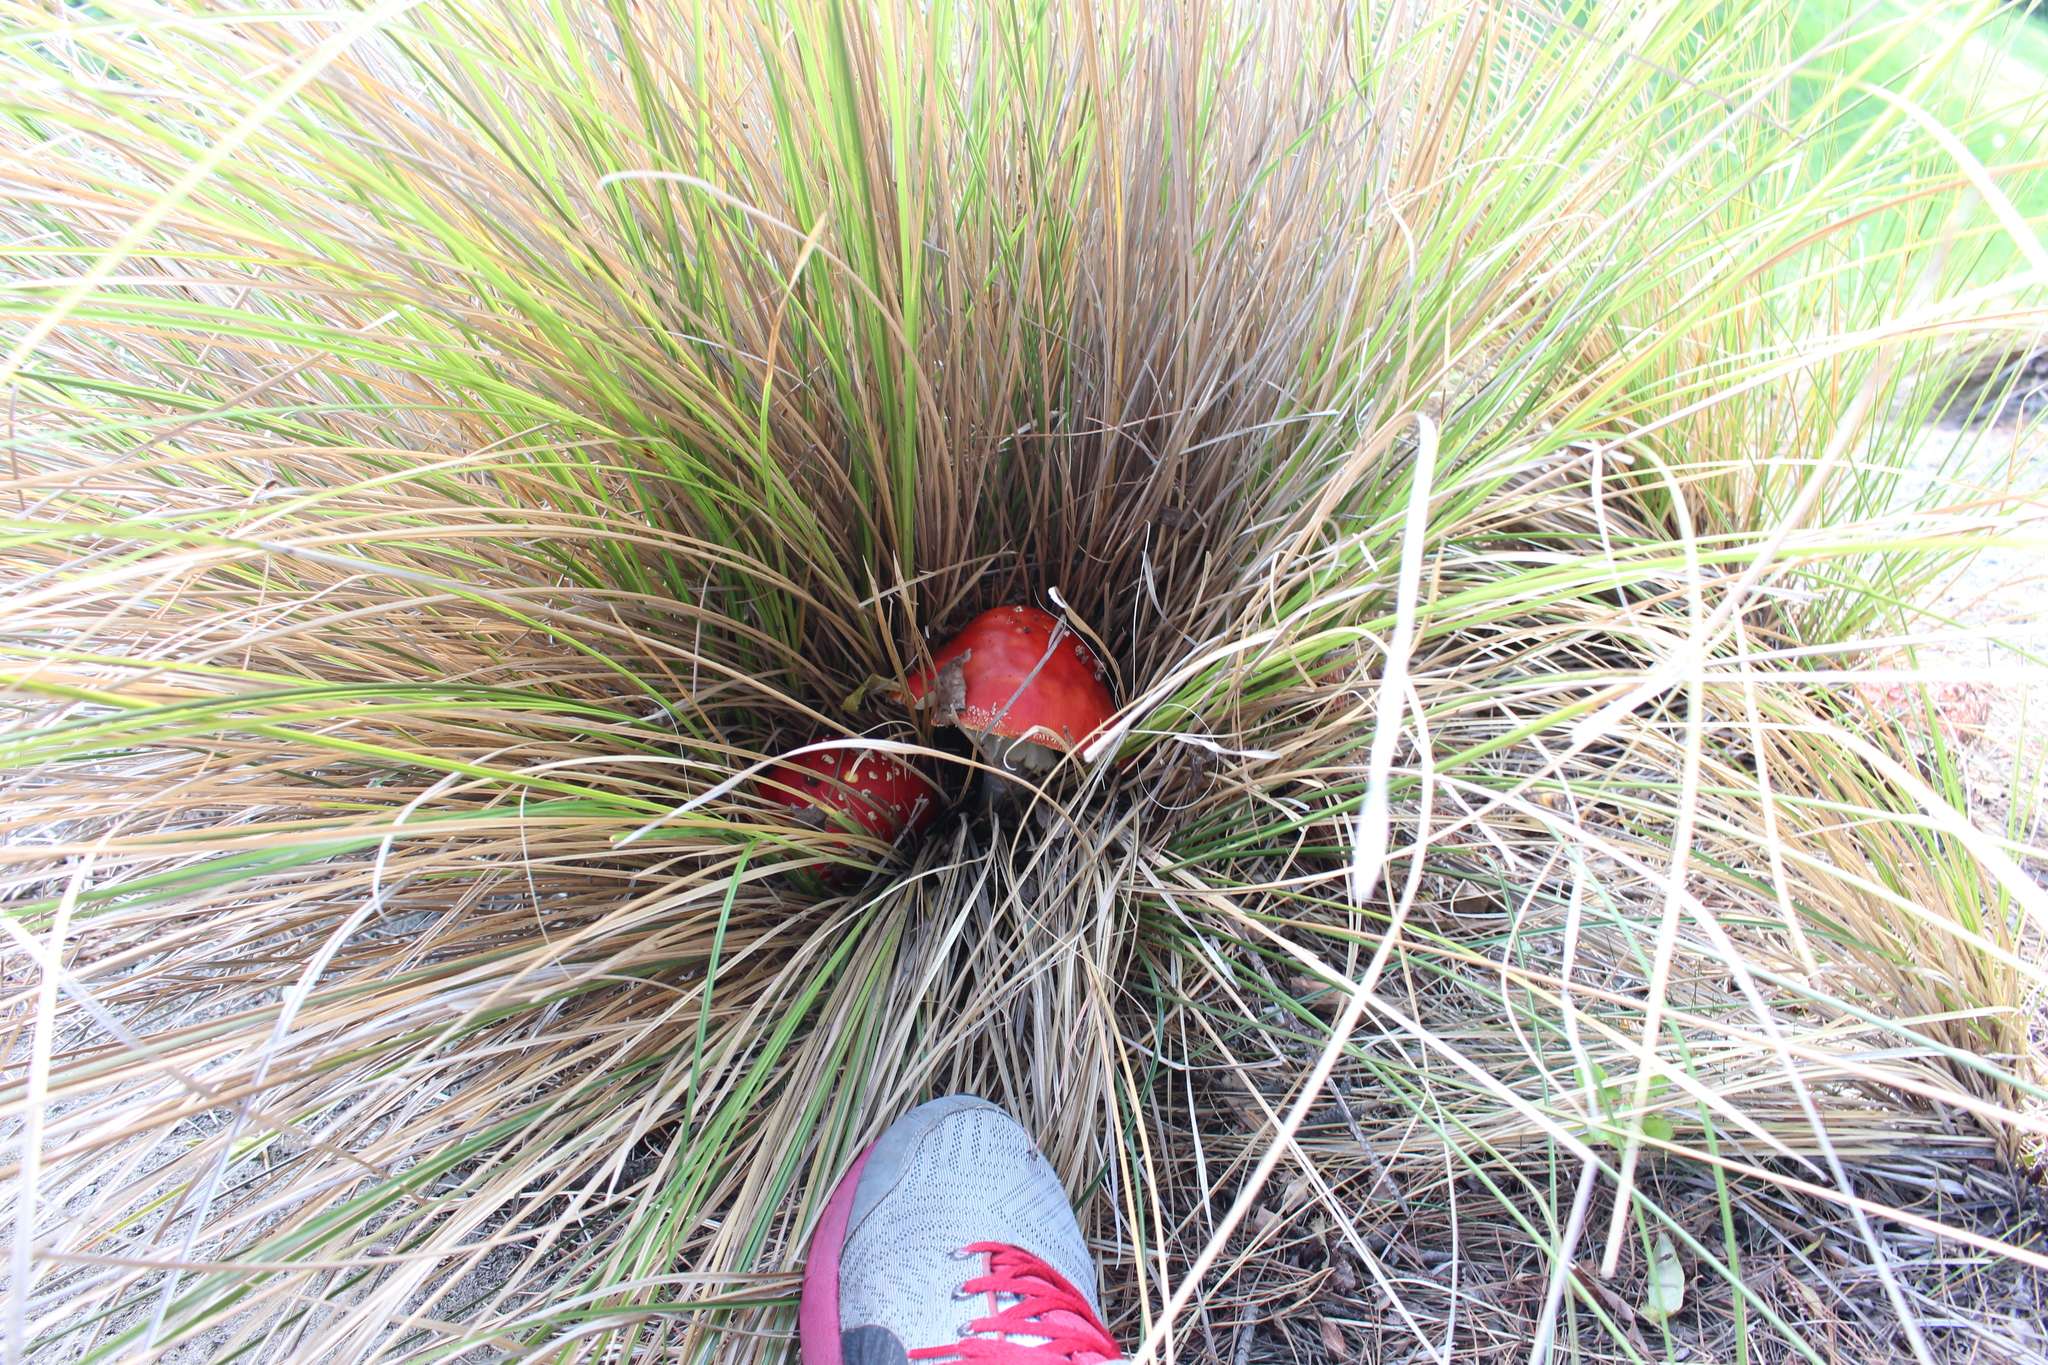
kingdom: Fungi
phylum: Basidiomycota
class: Agaricomycetes
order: Agaricales
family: Amanitaceae
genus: Amanita
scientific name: Amanita muscaria
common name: Fly agaric
